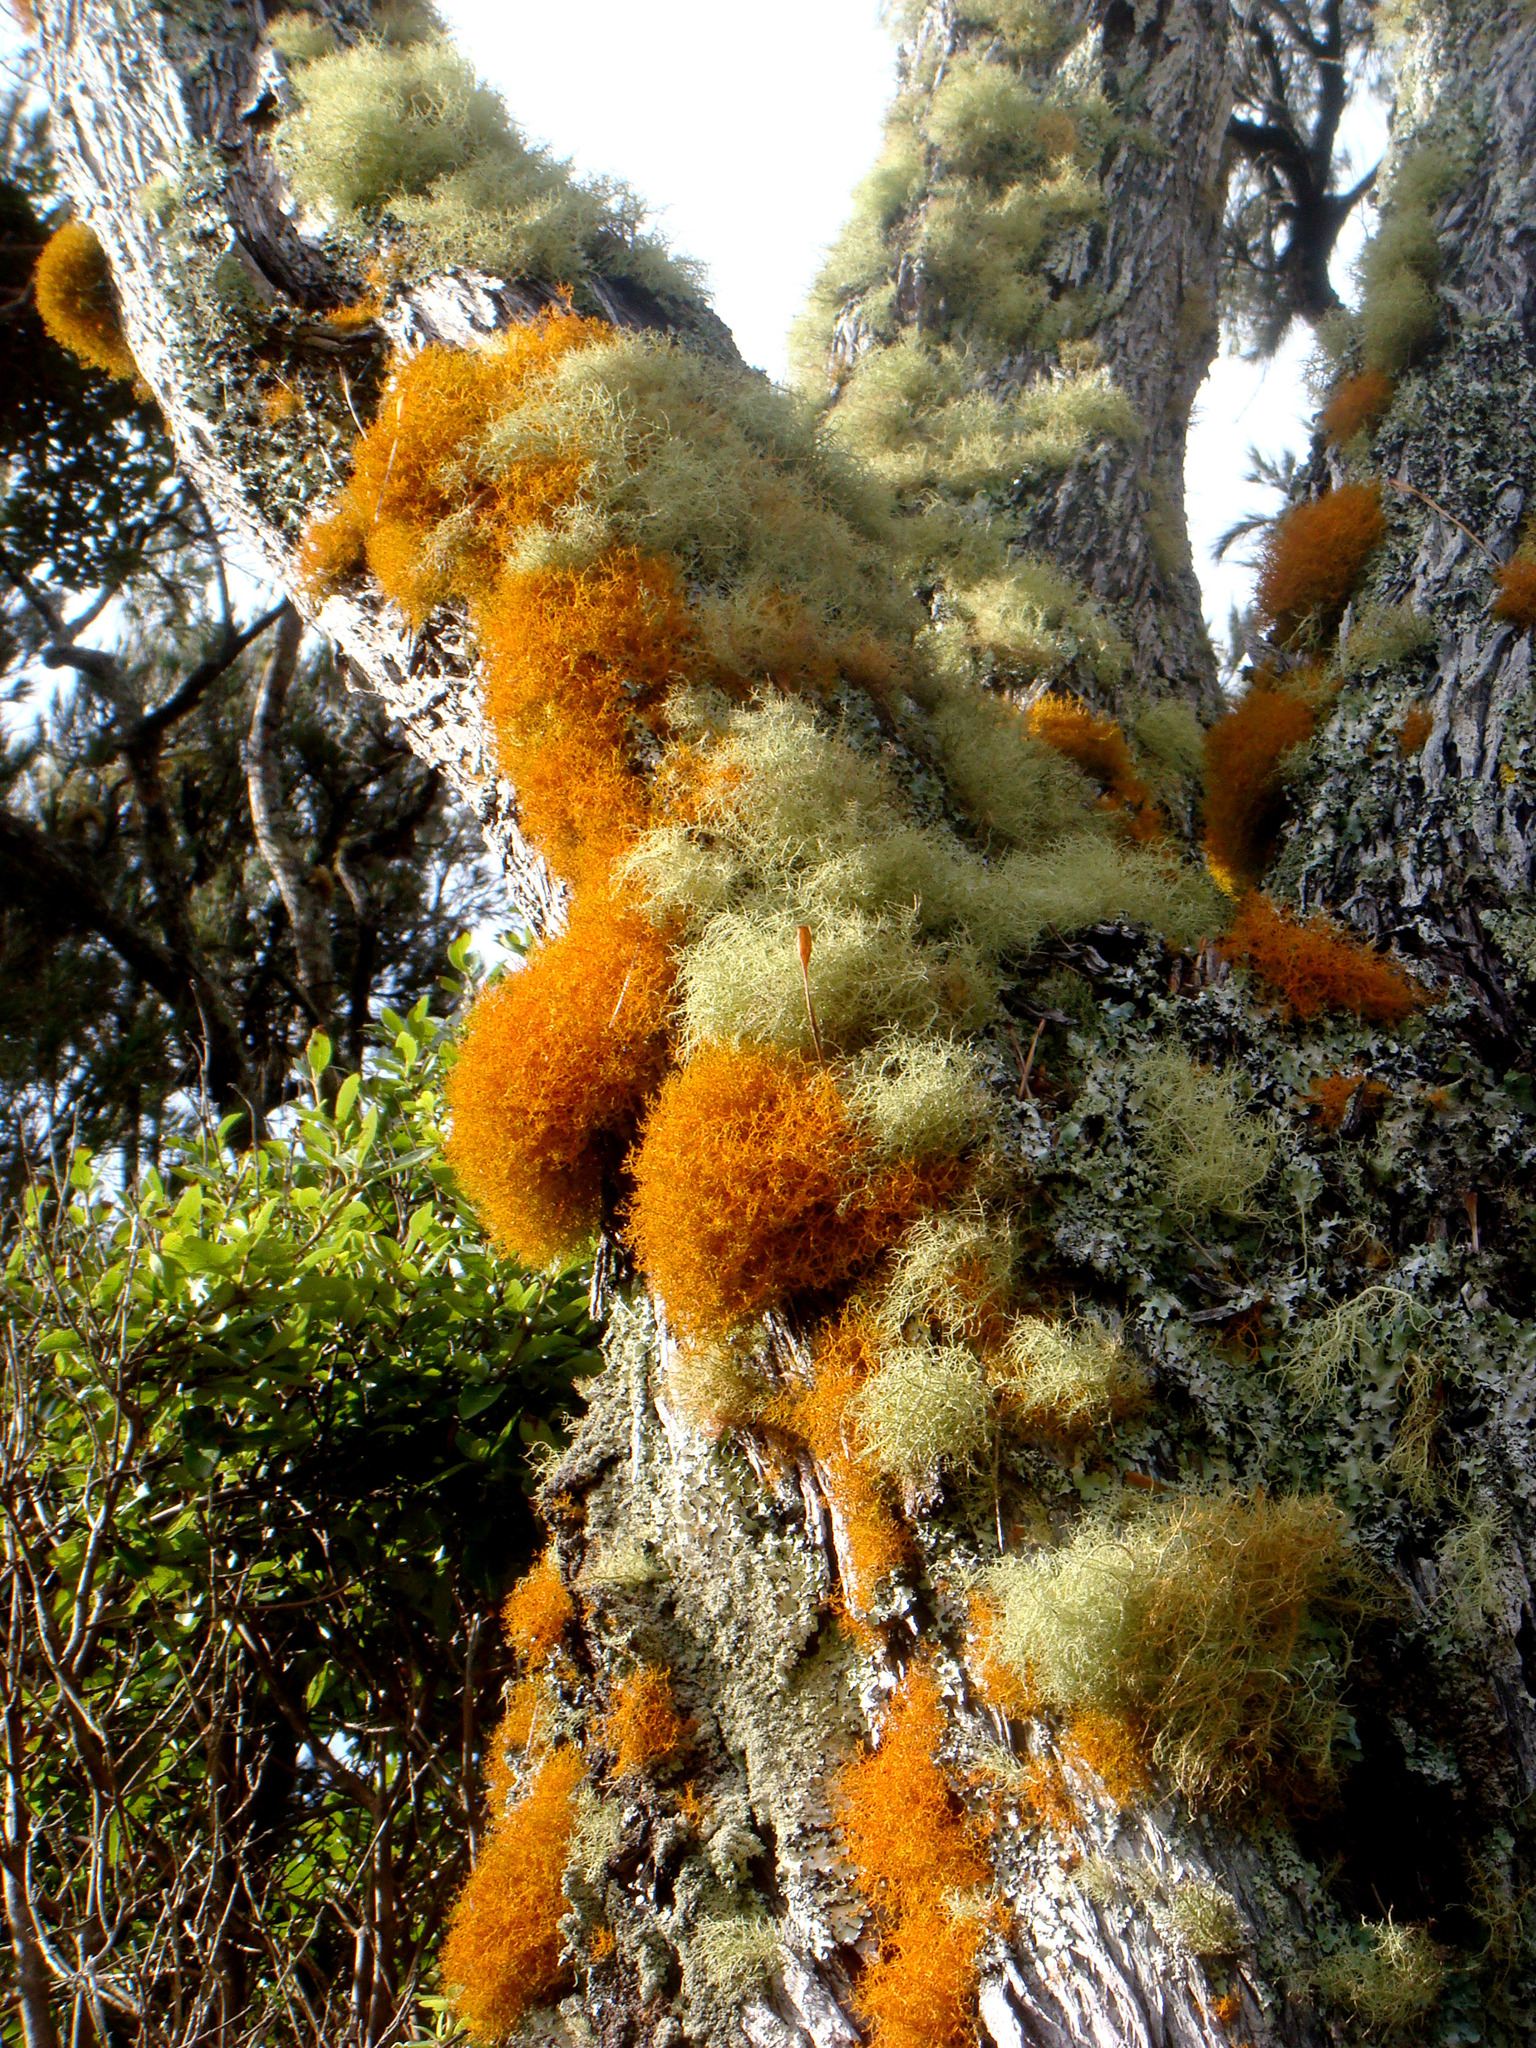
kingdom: Fungi
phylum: Ascomycota
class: Lecanoromycetes
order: Teloschistales
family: Teloschistaceae
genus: Teloschistes
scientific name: Teloschistes flavicans
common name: Golden hair-lichen
